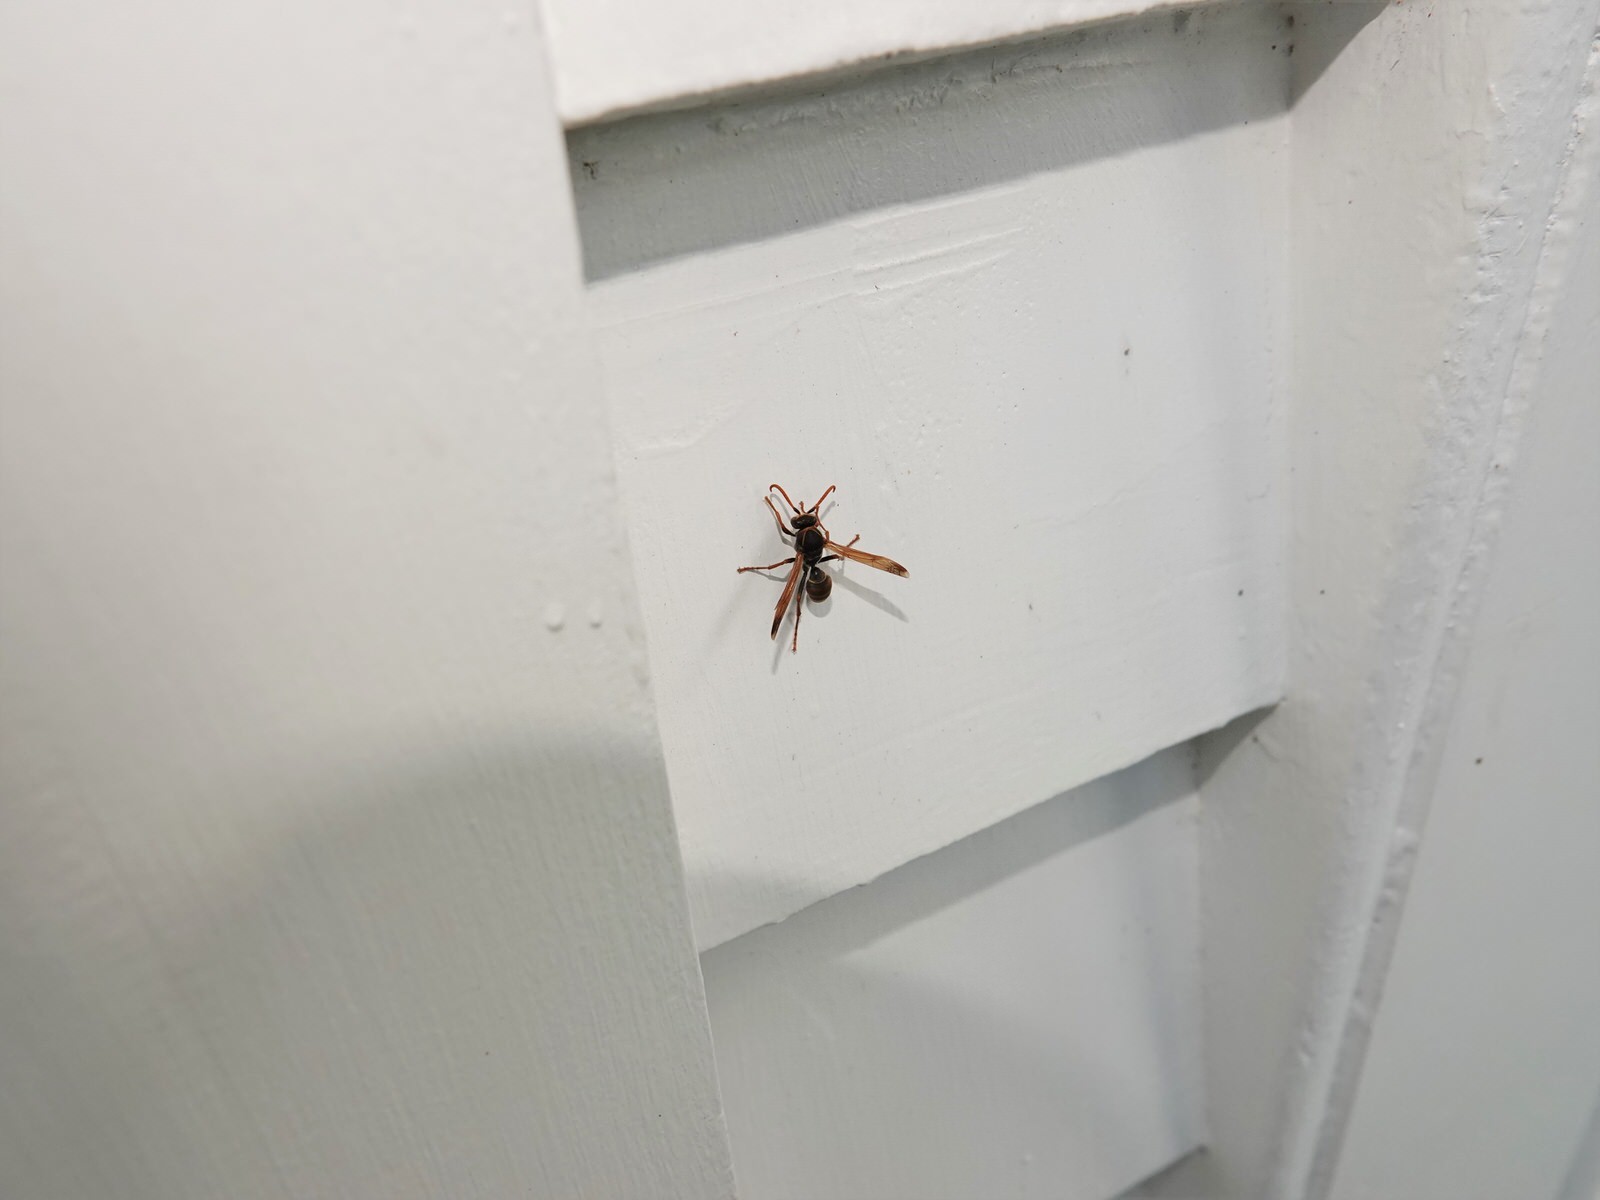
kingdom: Animalia
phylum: Arthropoda
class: Insecta
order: Hymenoptera
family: Eumenidae
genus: Polistes
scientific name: Polistes humilis
